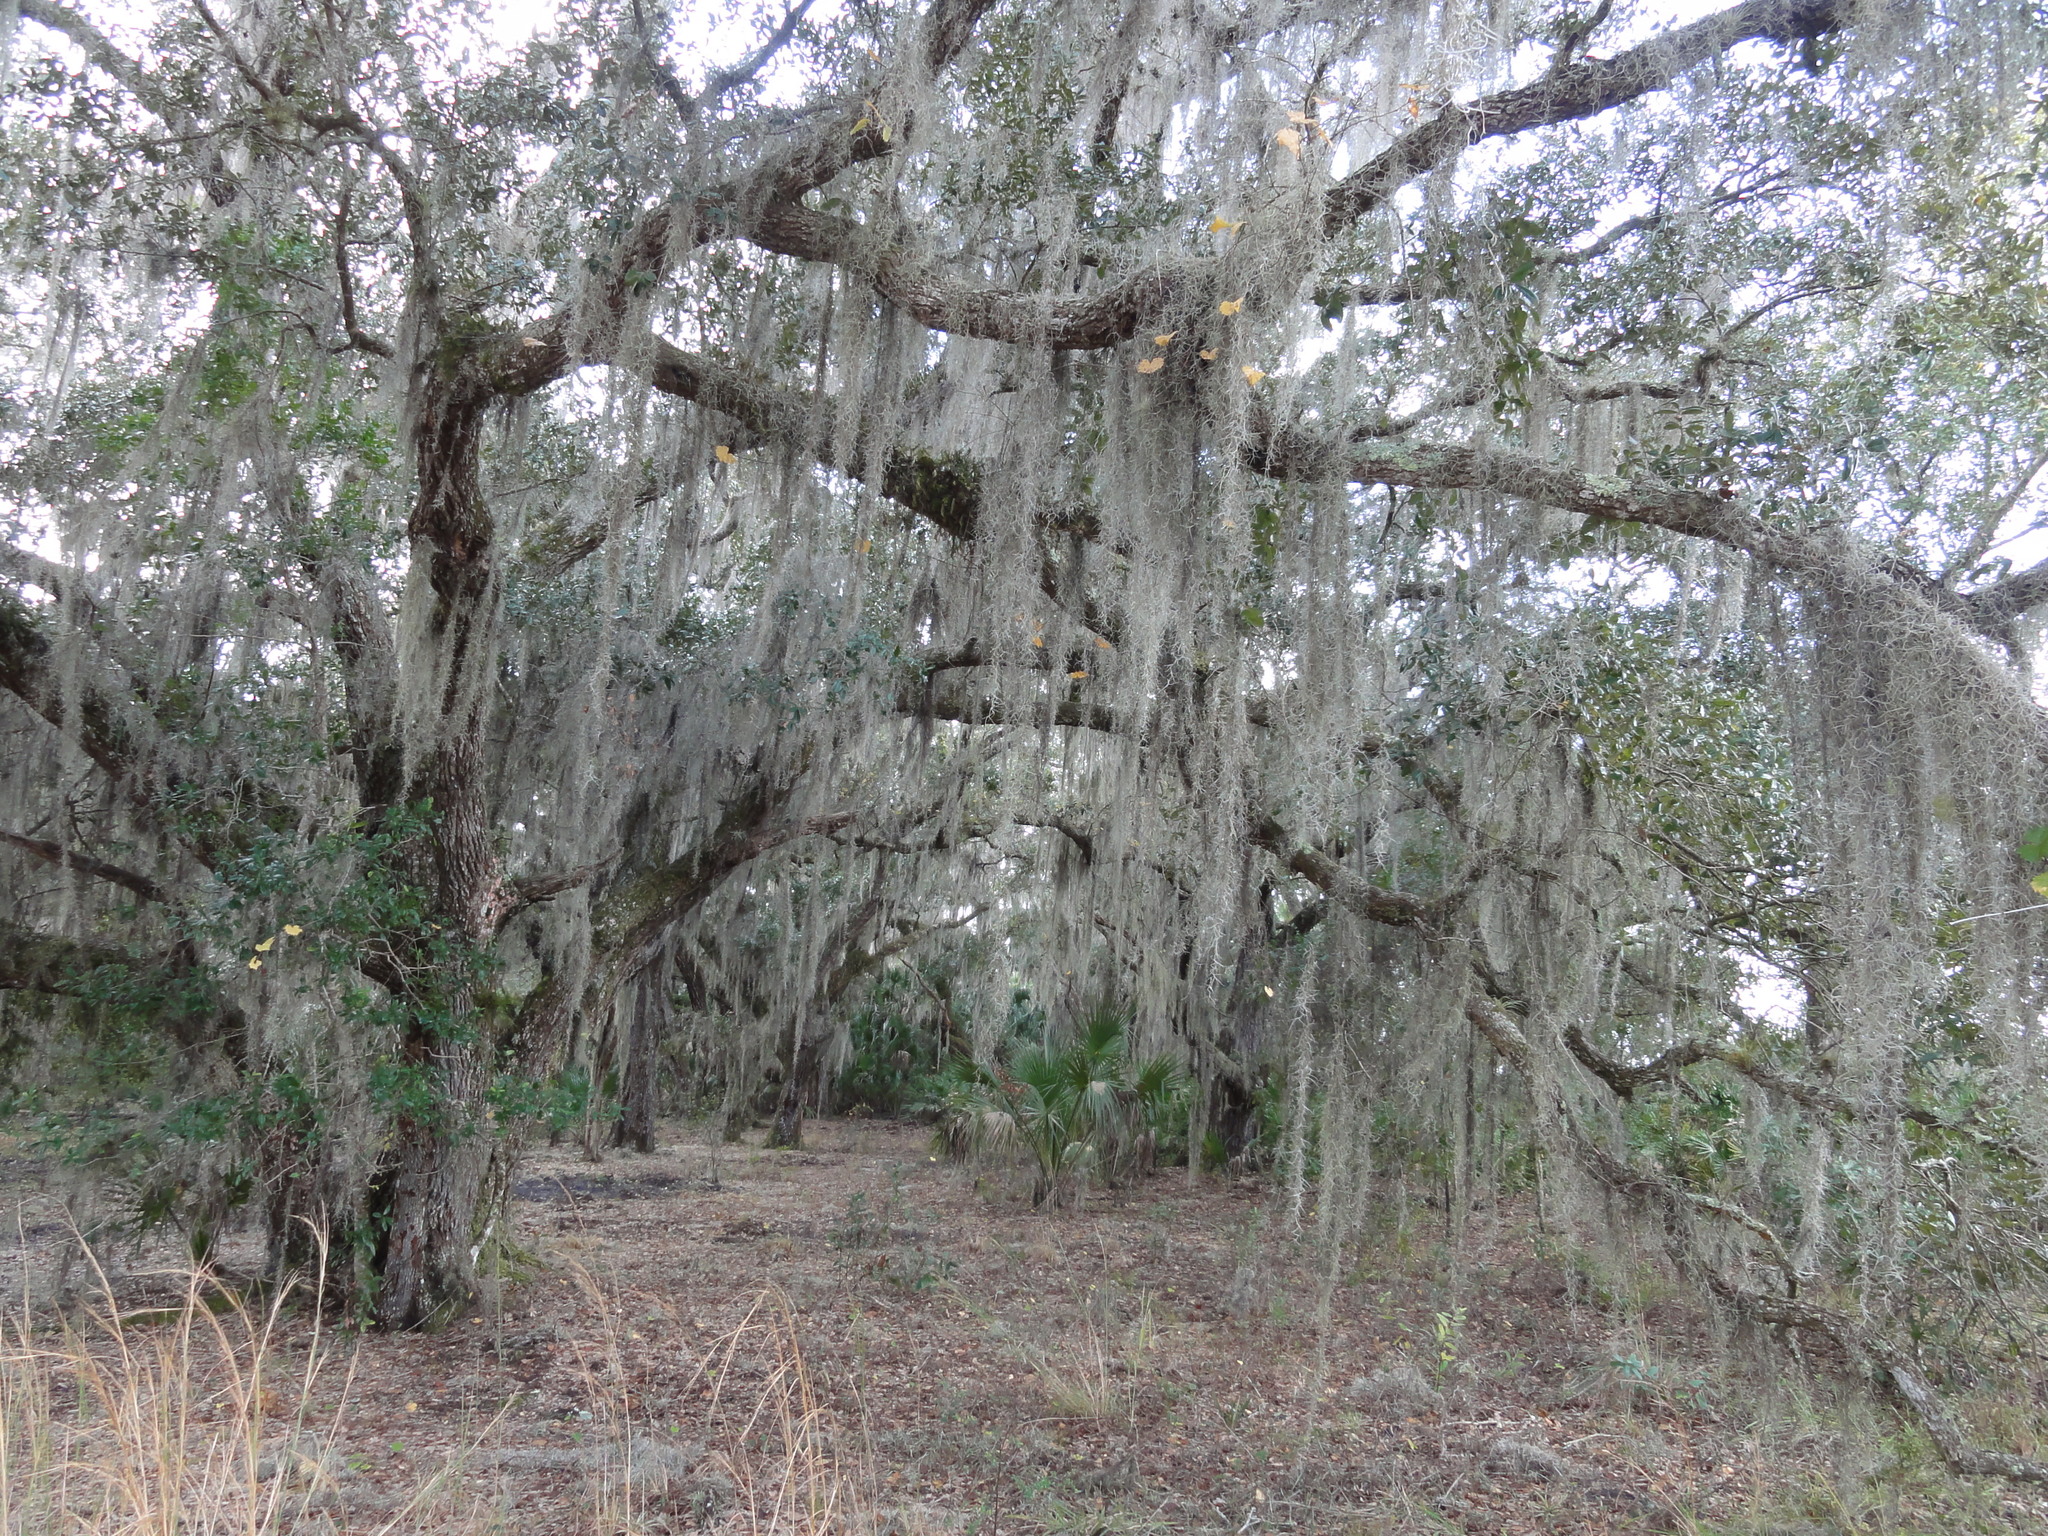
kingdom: Plantae
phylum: Tracheophyta
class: Liliopsida
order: Poales
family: Bromeliaceae
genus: Tillandsia
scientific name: Tillandsia usneoides
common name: Spanish moss
